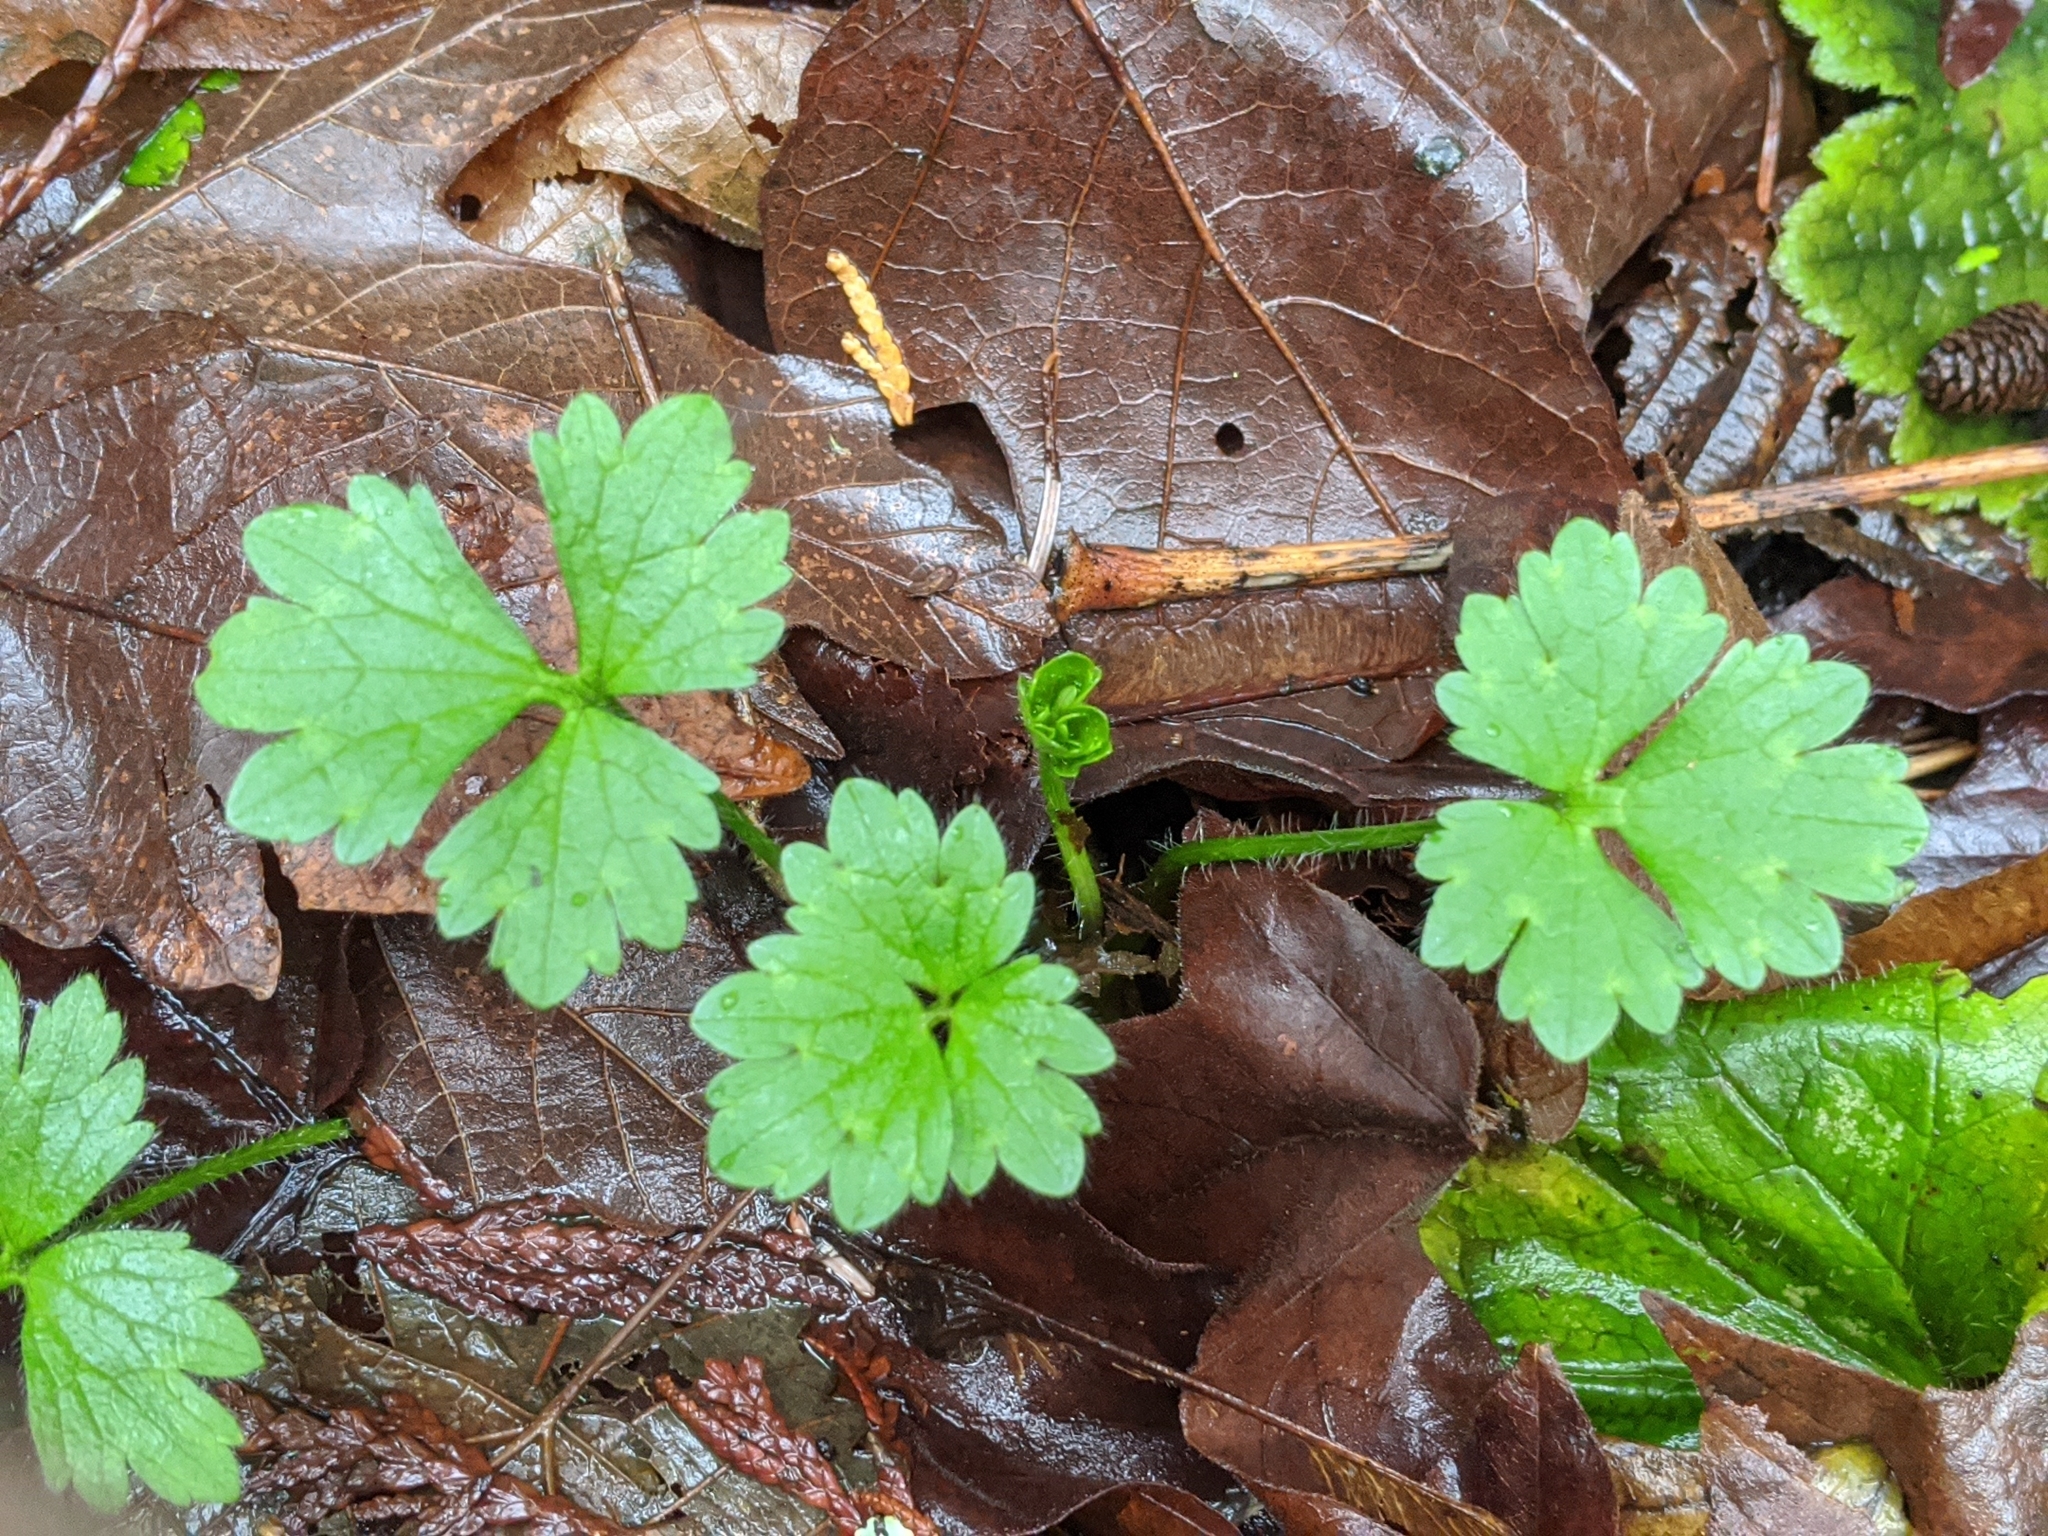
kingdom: Plantae
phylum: Tracheophyta
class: Magnoliopsida
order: Ranunculales
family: Ranunculaceae
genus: Ranunculus
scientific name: Ranunculus repens
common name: Creeping buttercup
